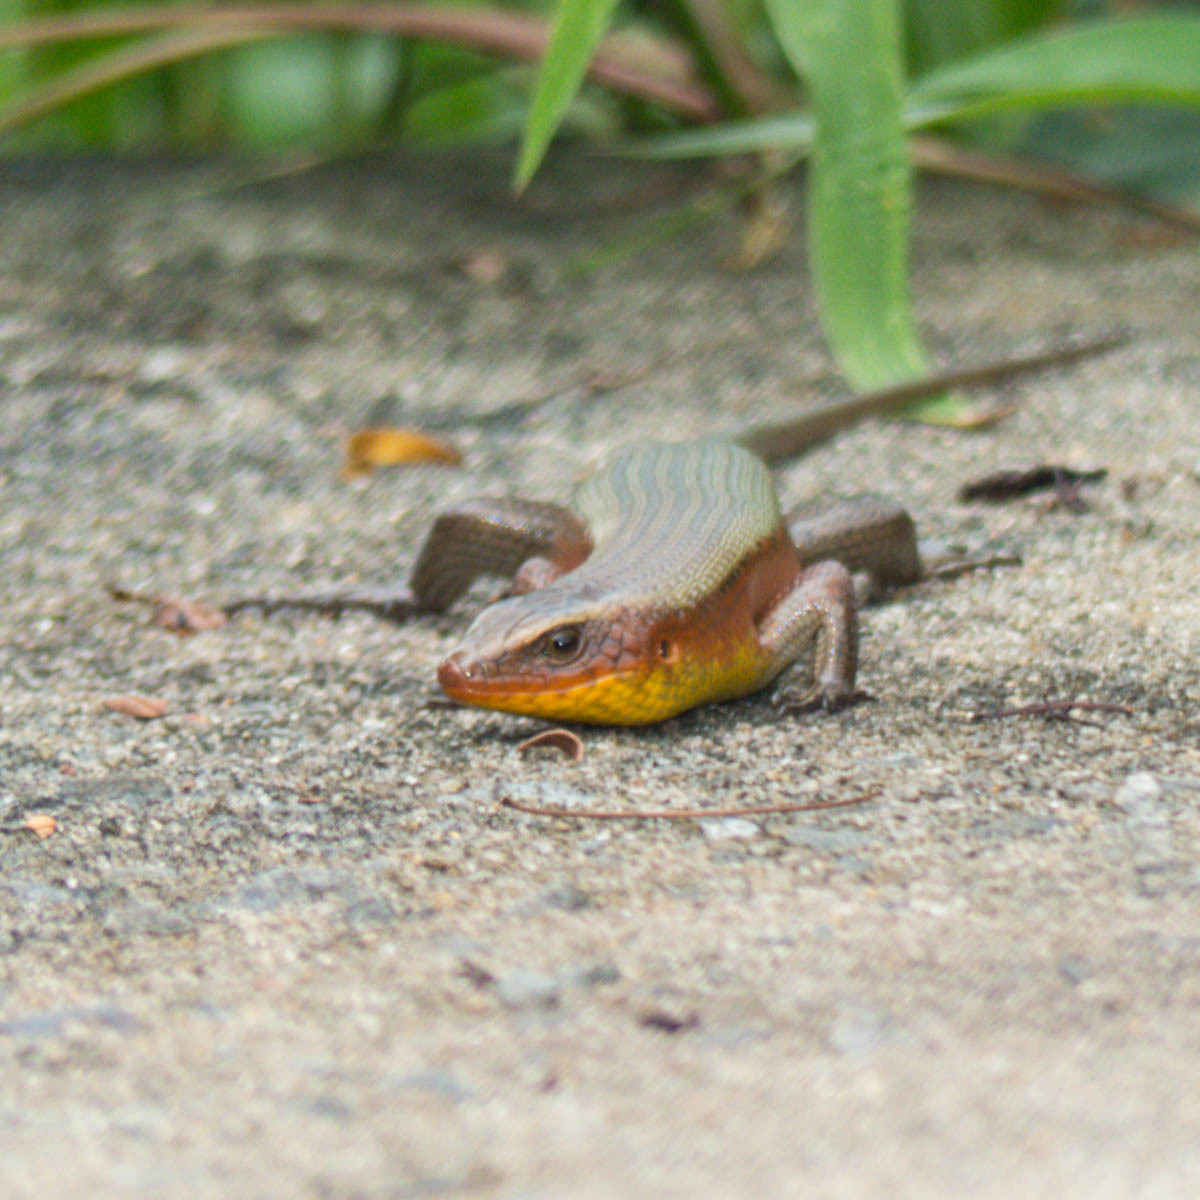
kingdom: Animalia
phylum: Chordata
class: Squamata
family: Scincidae
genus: Eutropis
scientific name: Eutropis multifasciata
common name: Common mabuya
